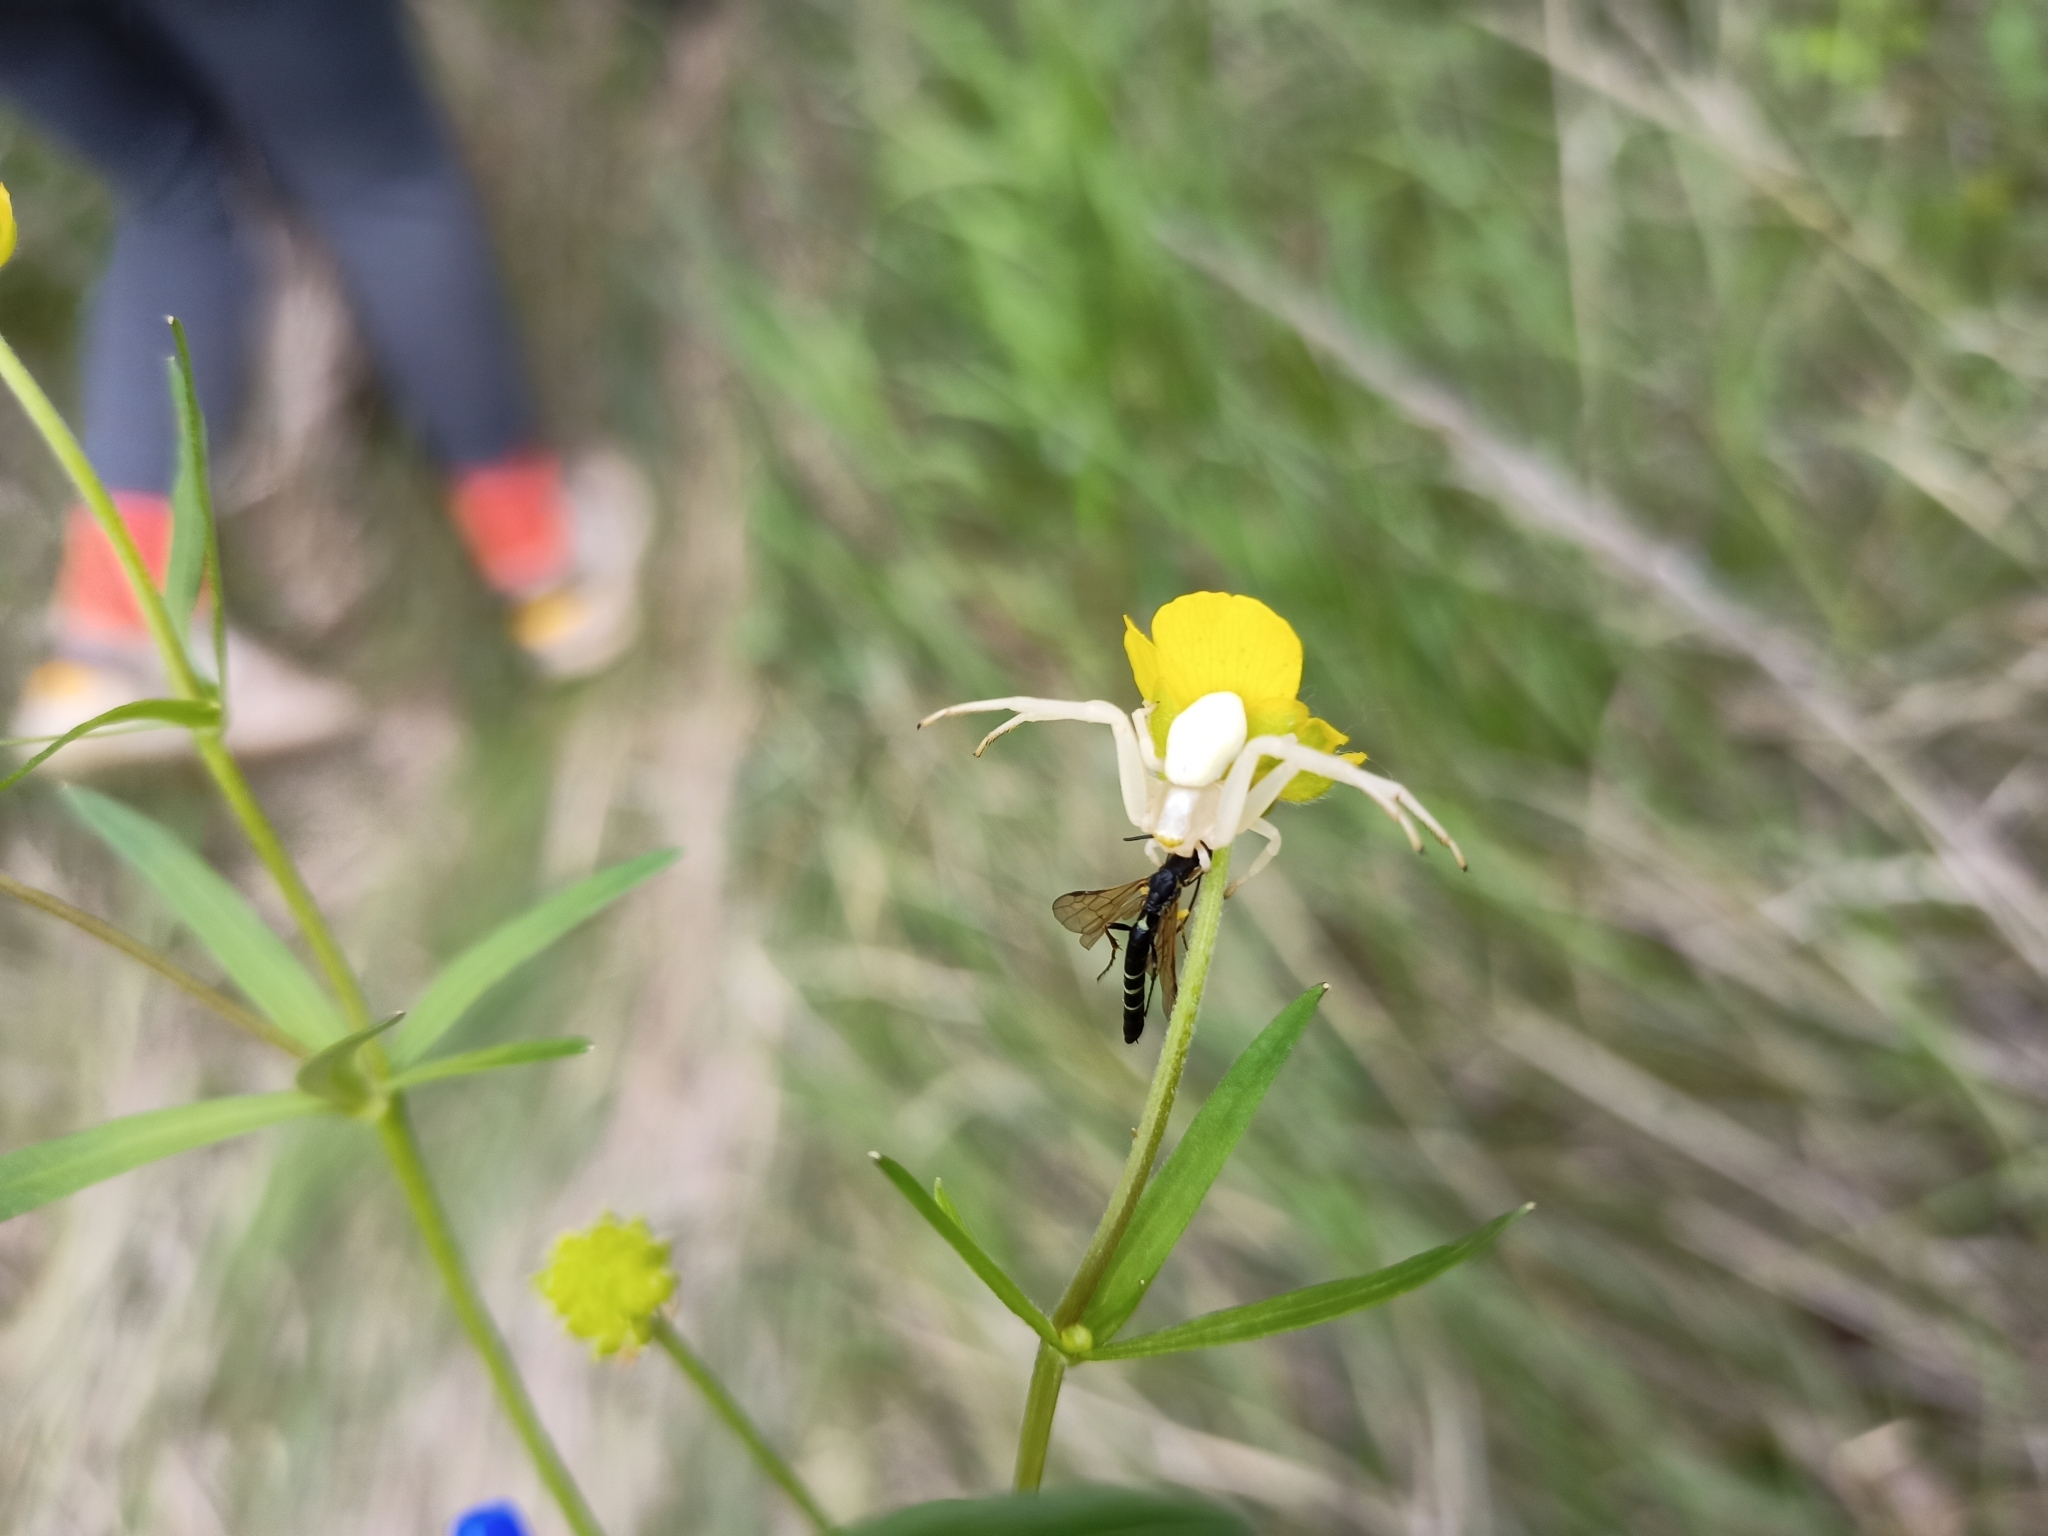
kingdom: Animalia
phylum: Arthropoda
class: Arachnida
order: Araneae
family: Thomisidae
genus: Misumena
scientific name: Misumena vatia
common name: Goldenrod crab spider
